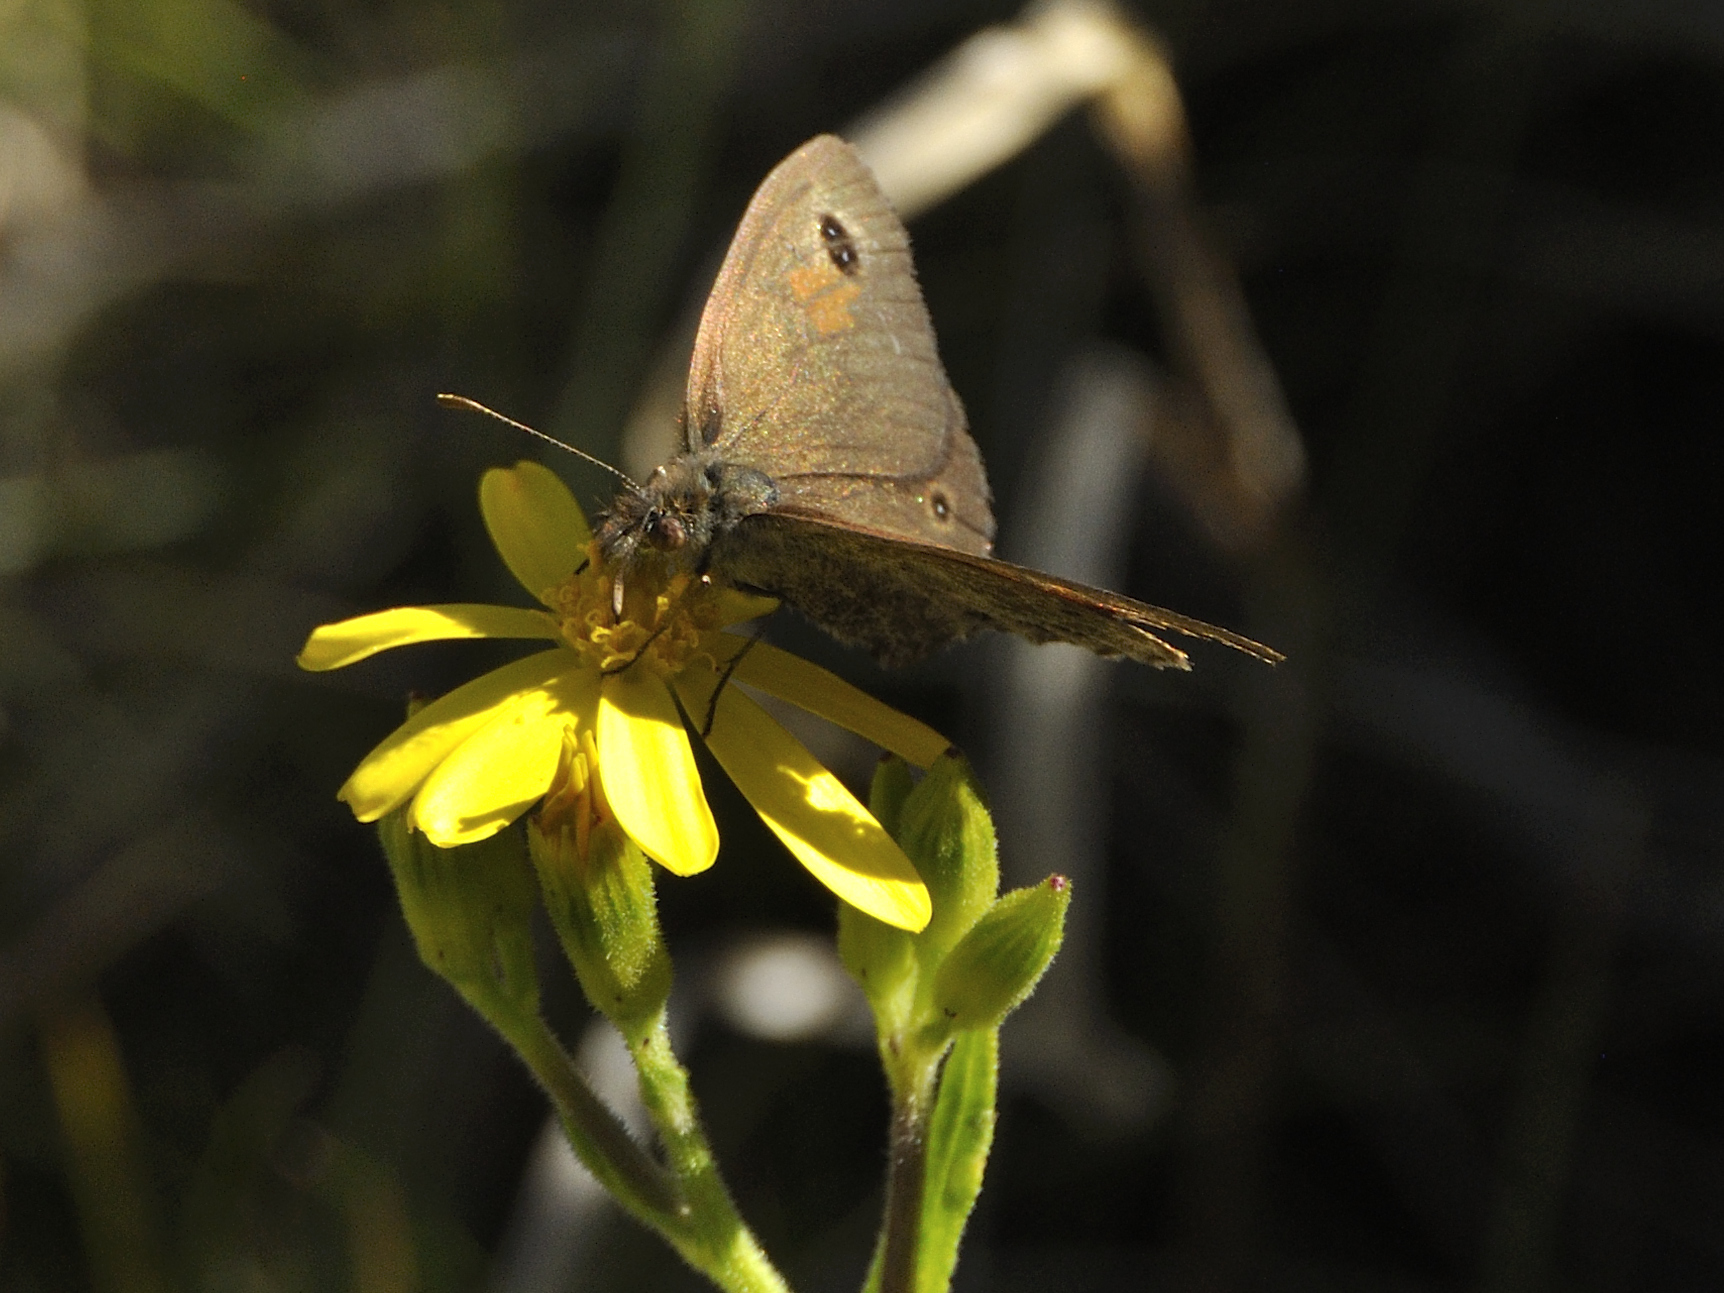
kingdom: Animalia
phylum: Arthropoda
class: Insecta
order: Lepidoptera
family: Nymphalidae
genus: Pseudonympha
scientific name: Pseudonympha magus
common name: Silver-bottom brown
